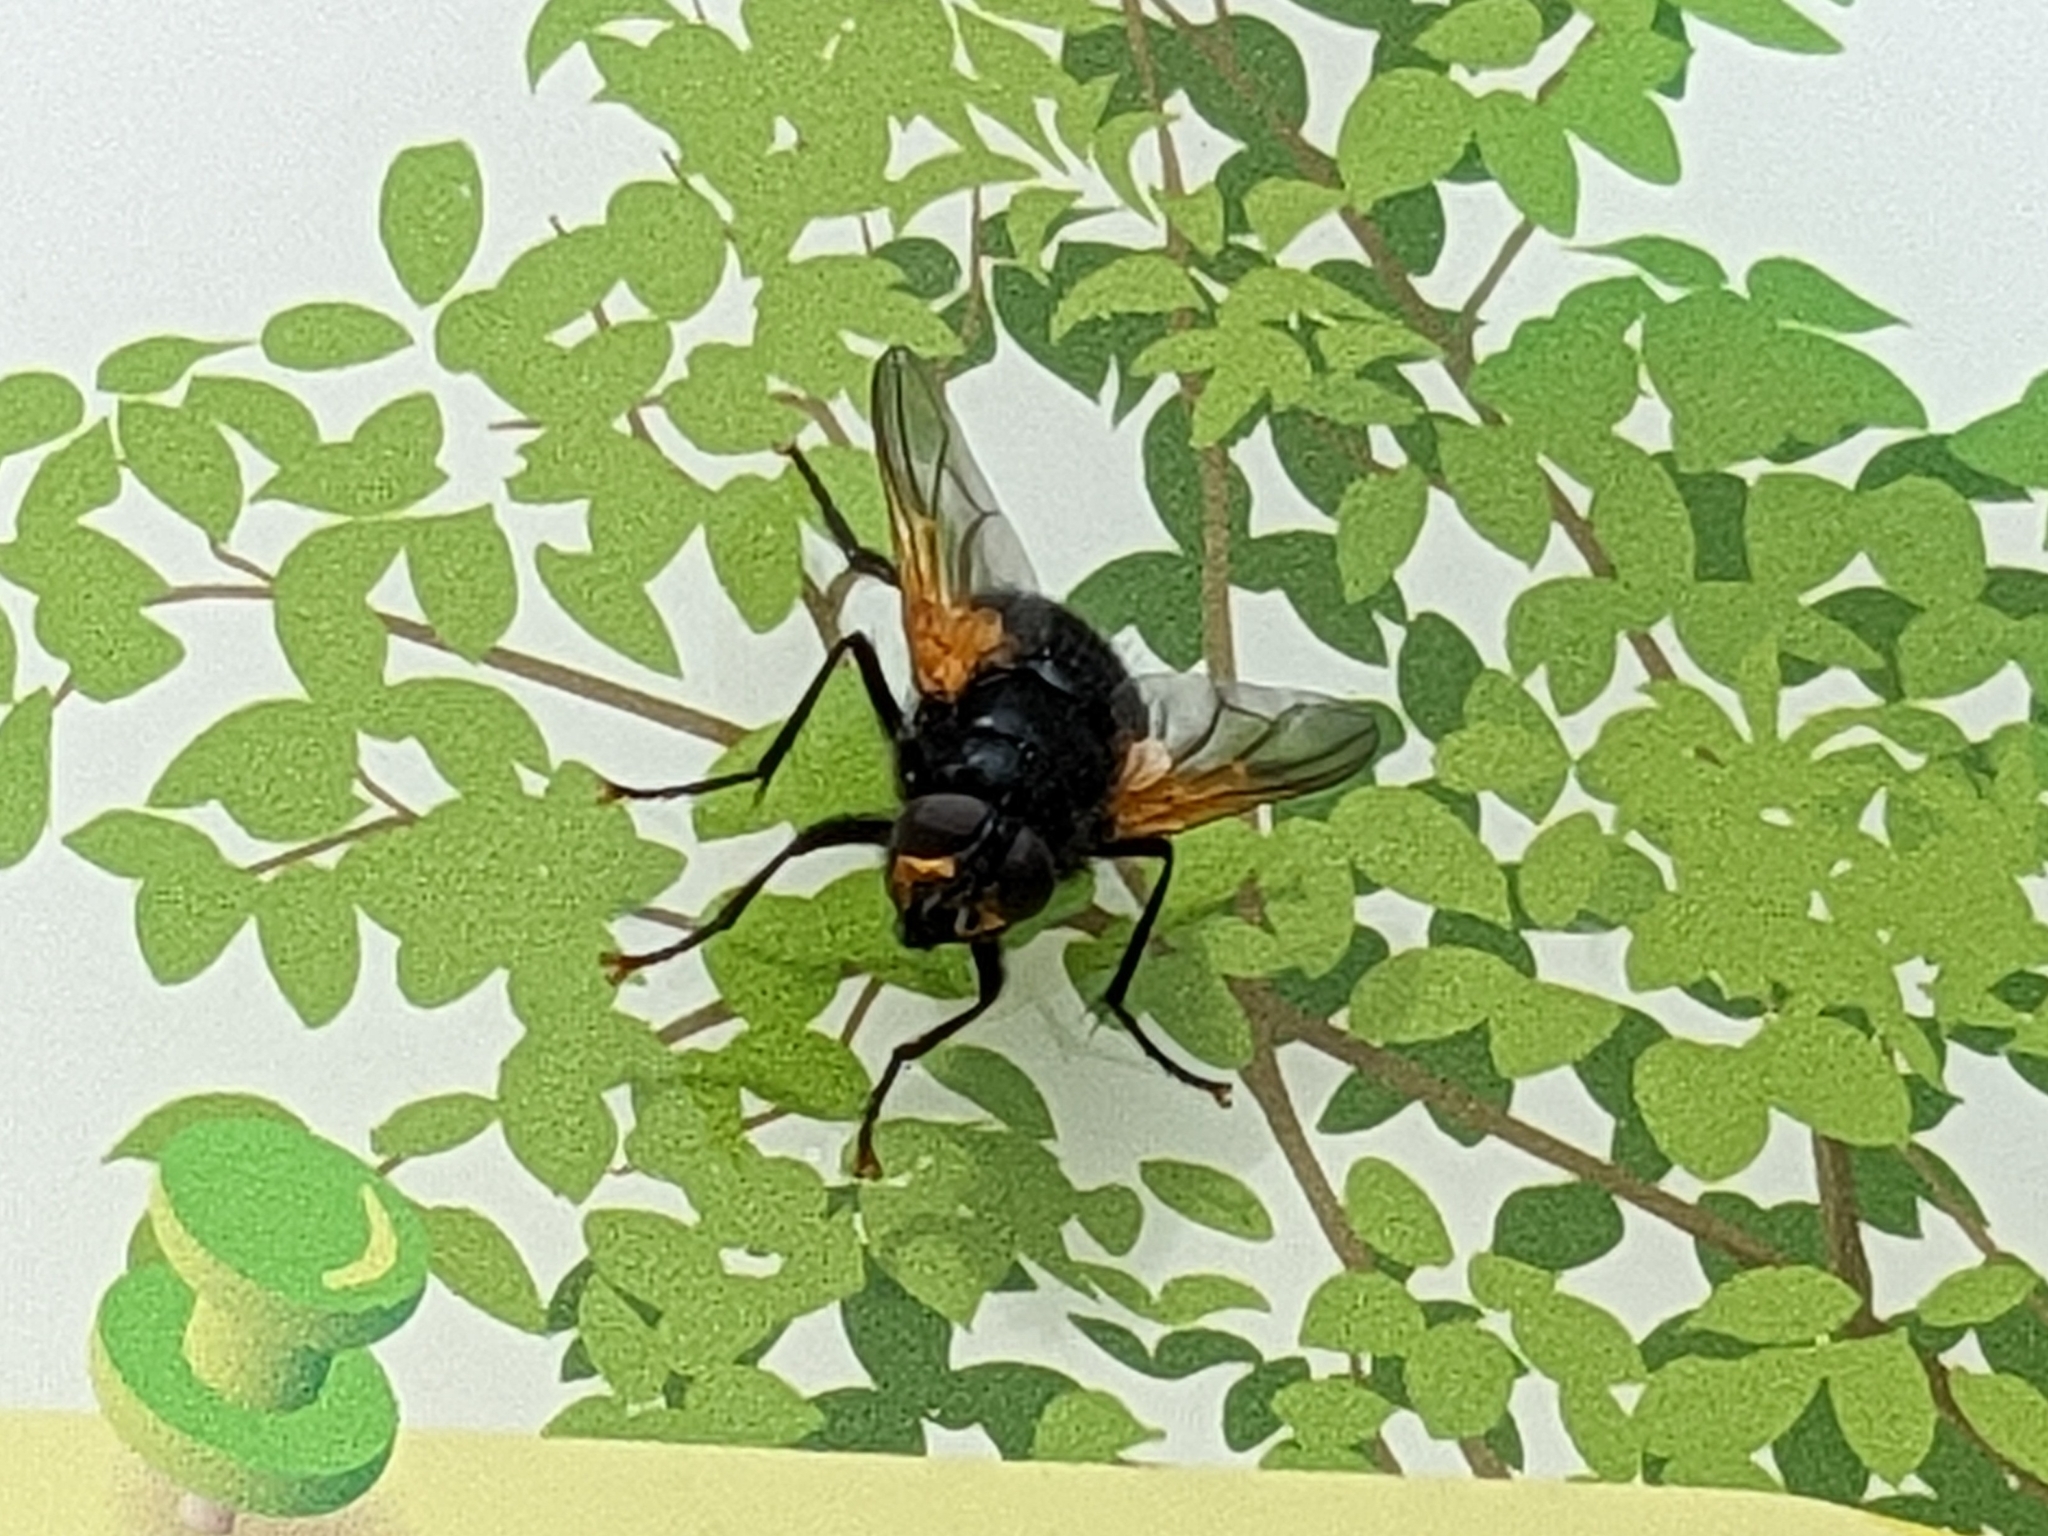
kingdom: Animalia
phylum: Arthropoda
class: Insecta
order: Diptera
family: Muscidae
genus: Mesembrina
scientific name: Mesembrina meridiana
